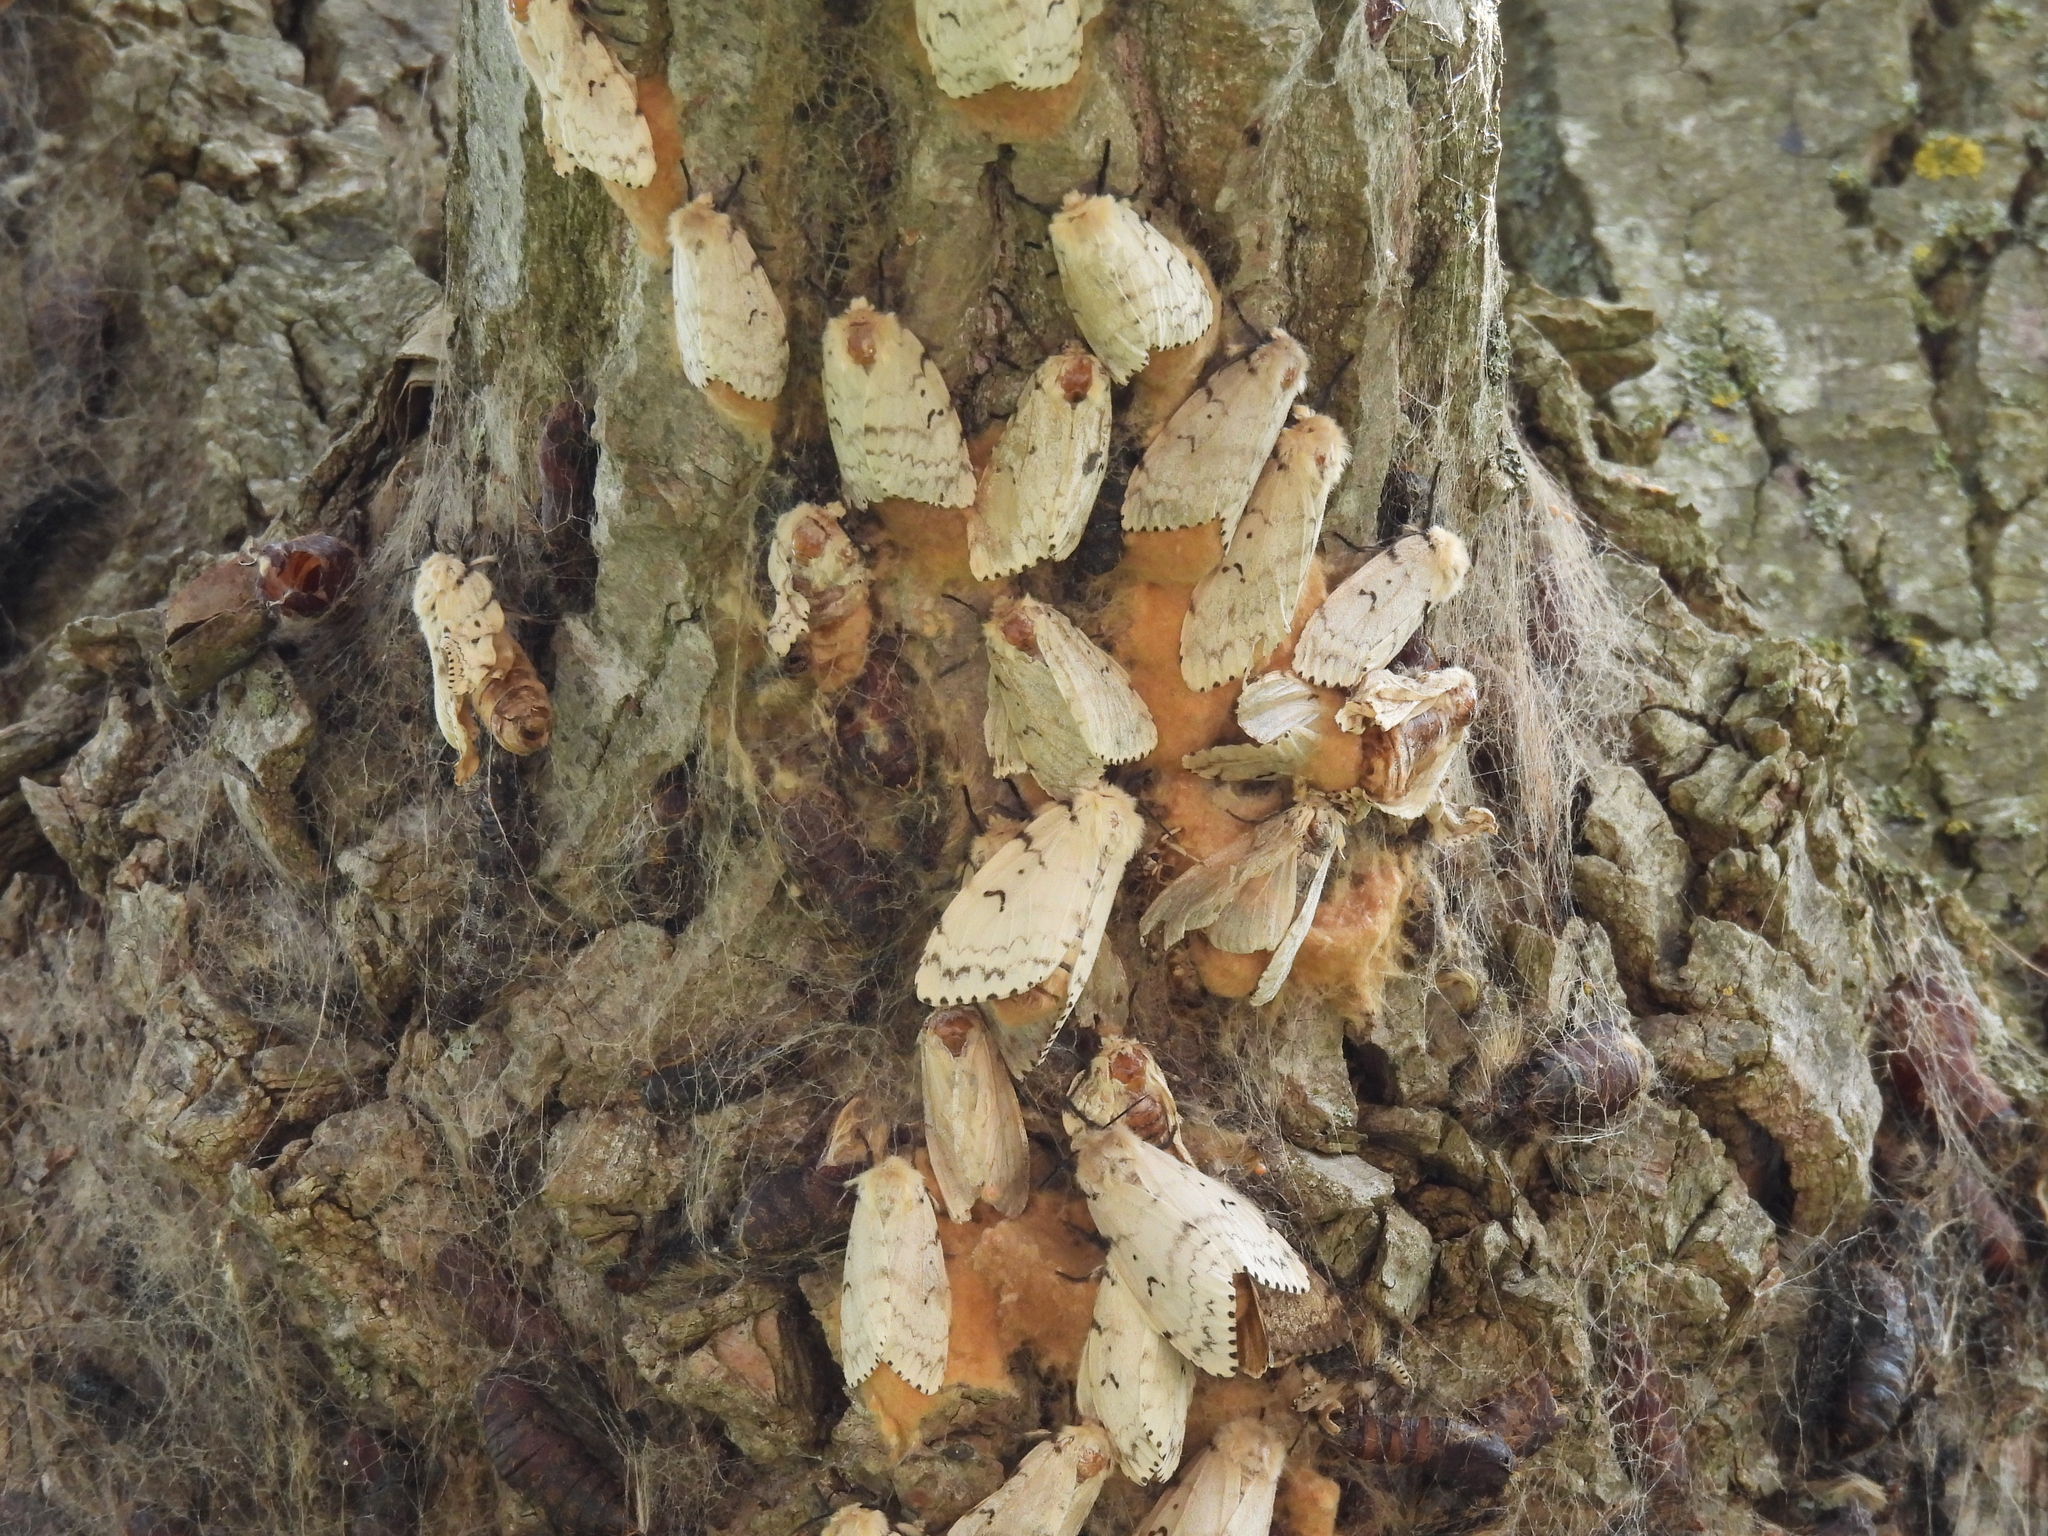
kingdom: Animalia
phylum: Arthropoda
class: Insecta
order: Lepidoptera
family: Erebidae
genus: Lymantria
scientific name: Lymantria dispar
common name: Gypsy moth
